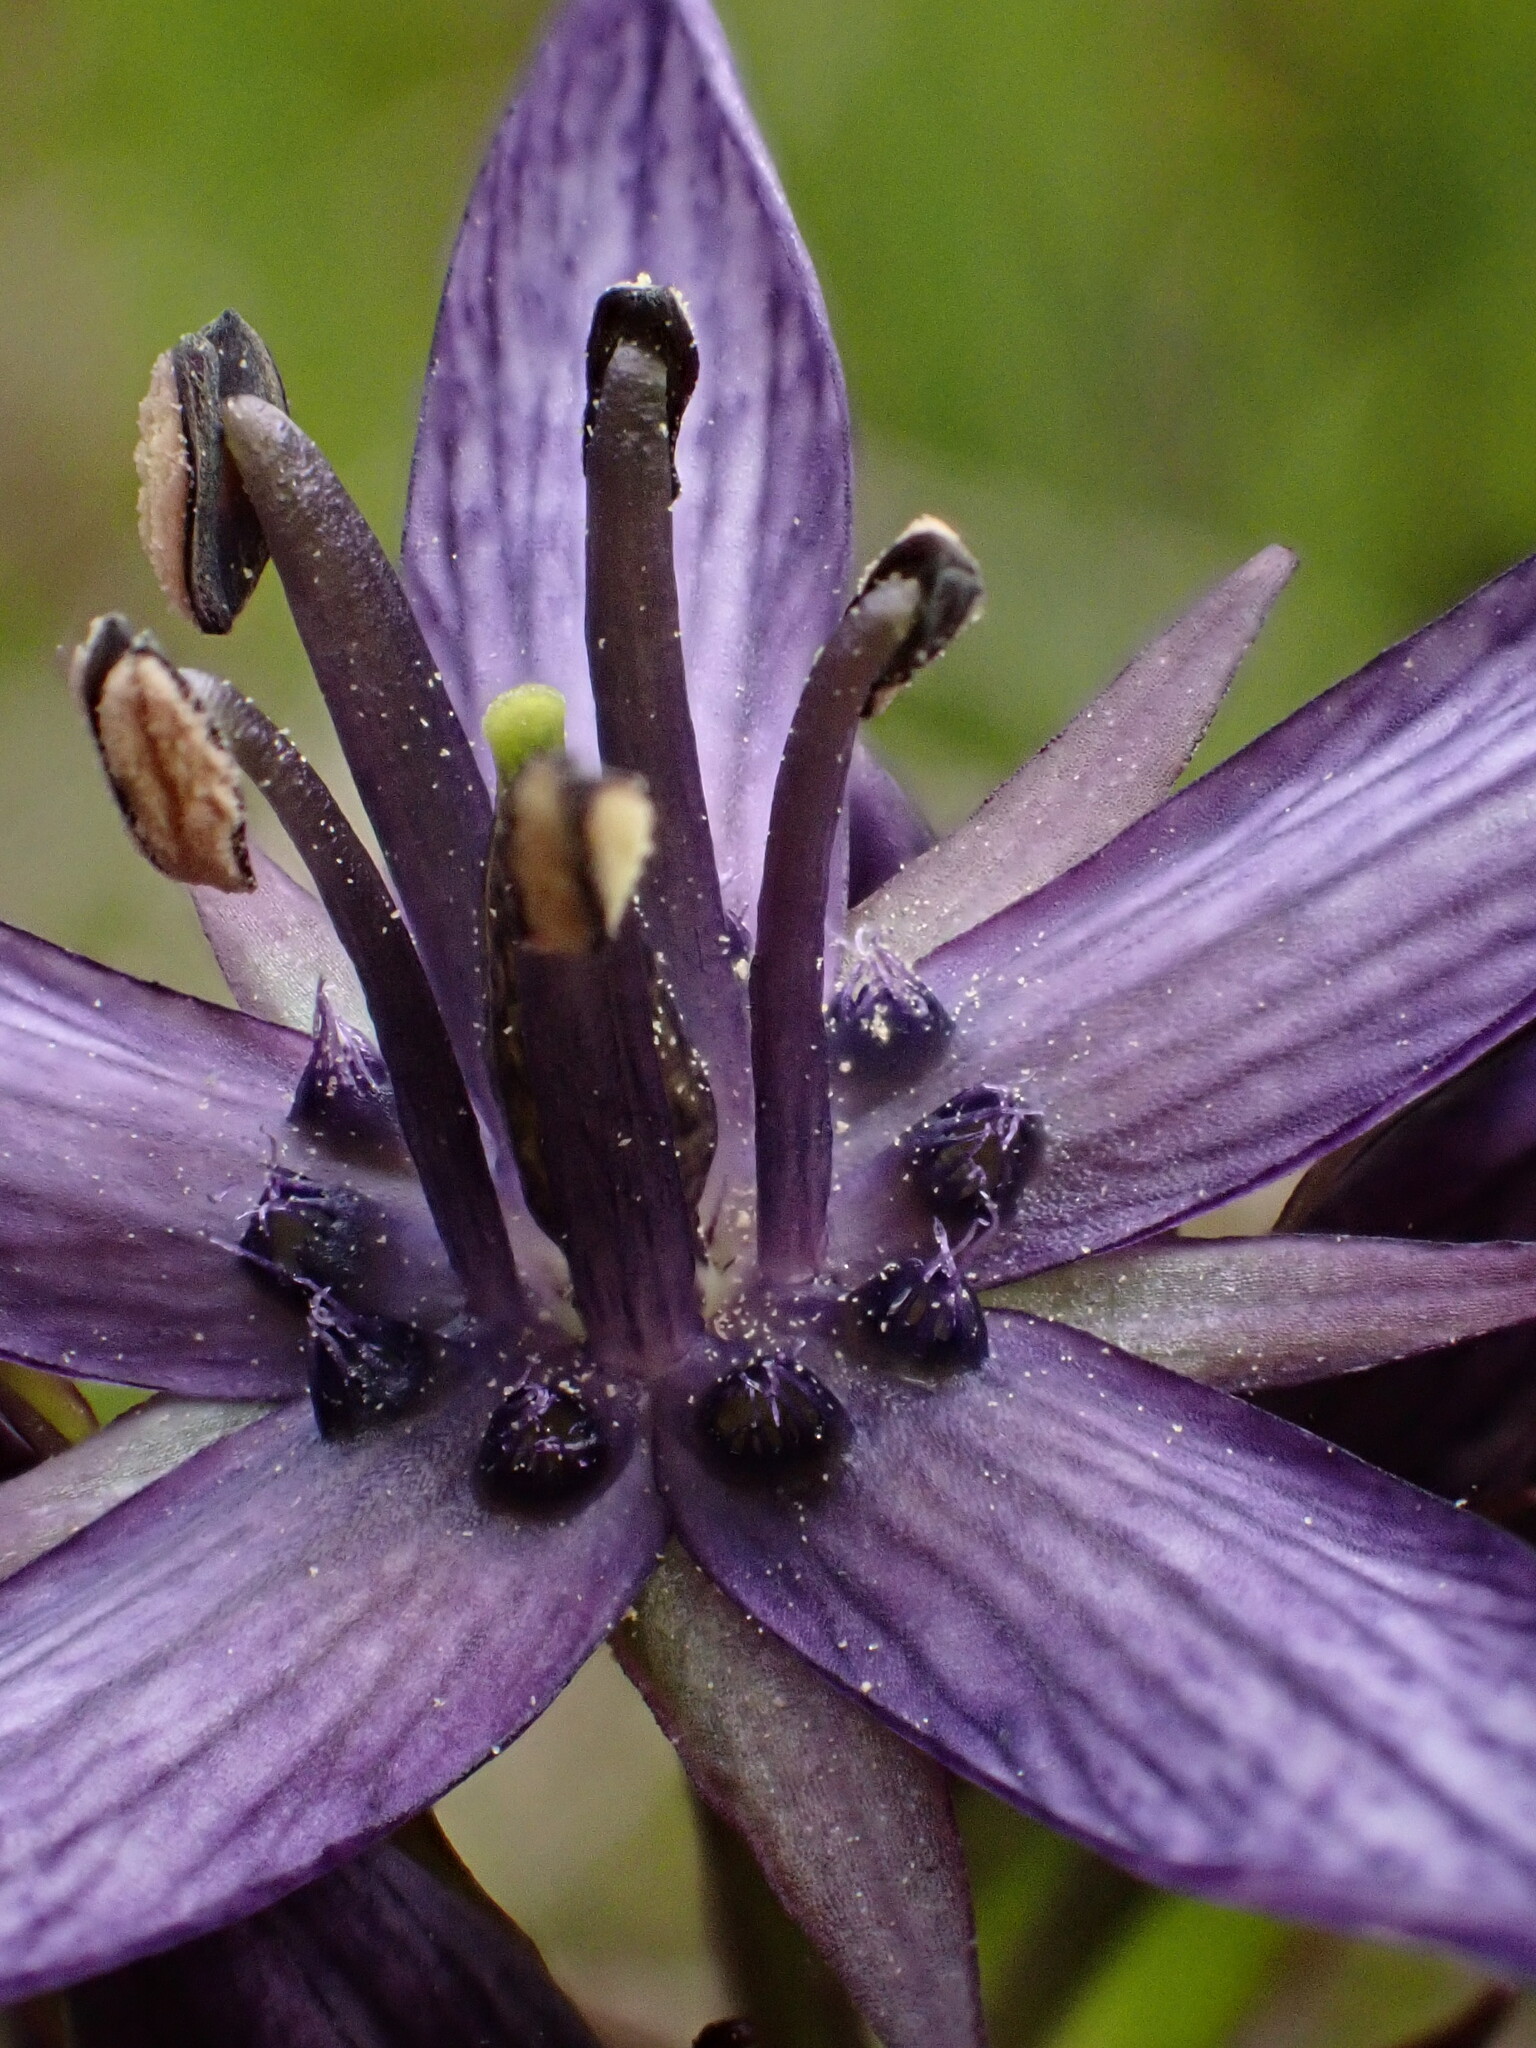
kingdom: Plantae
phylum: Tracheophyta
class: Magnoliopsida
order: Gentianales
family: Gentianaceae
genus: Swertia
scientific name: Swertia perennis
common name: Alpine bog swertia
